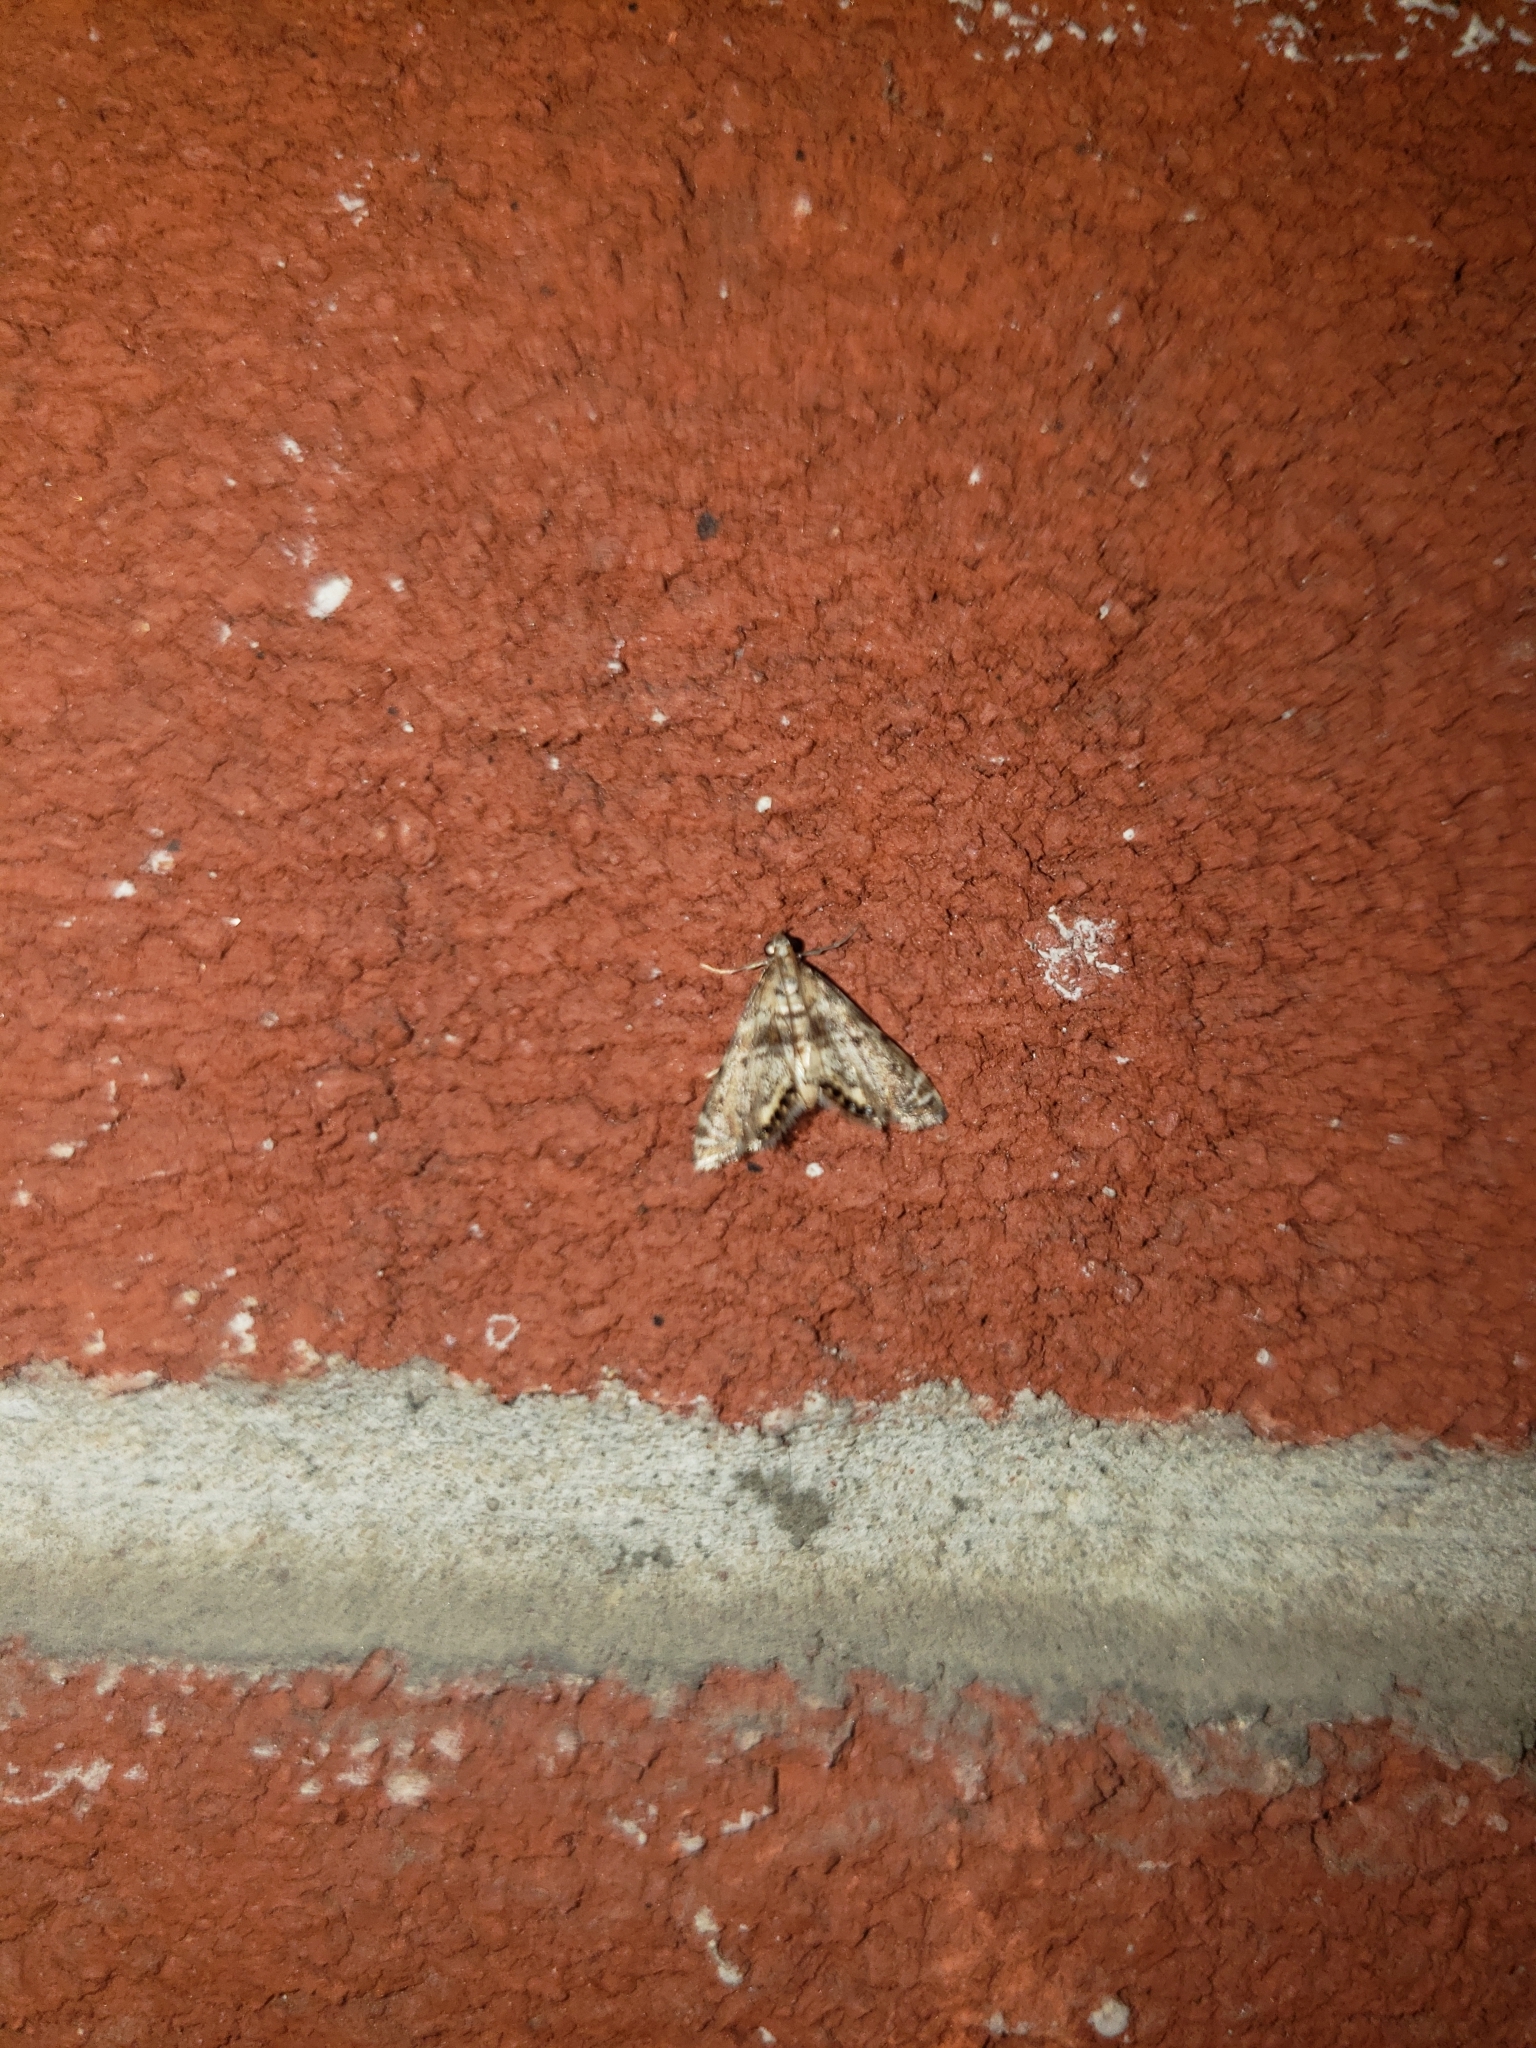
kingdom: Animalia
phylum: Arthropoda
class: Insecta
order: Lepidoptera
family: Crambidae
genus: Petrophila
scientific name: Petrophila fulicalis
